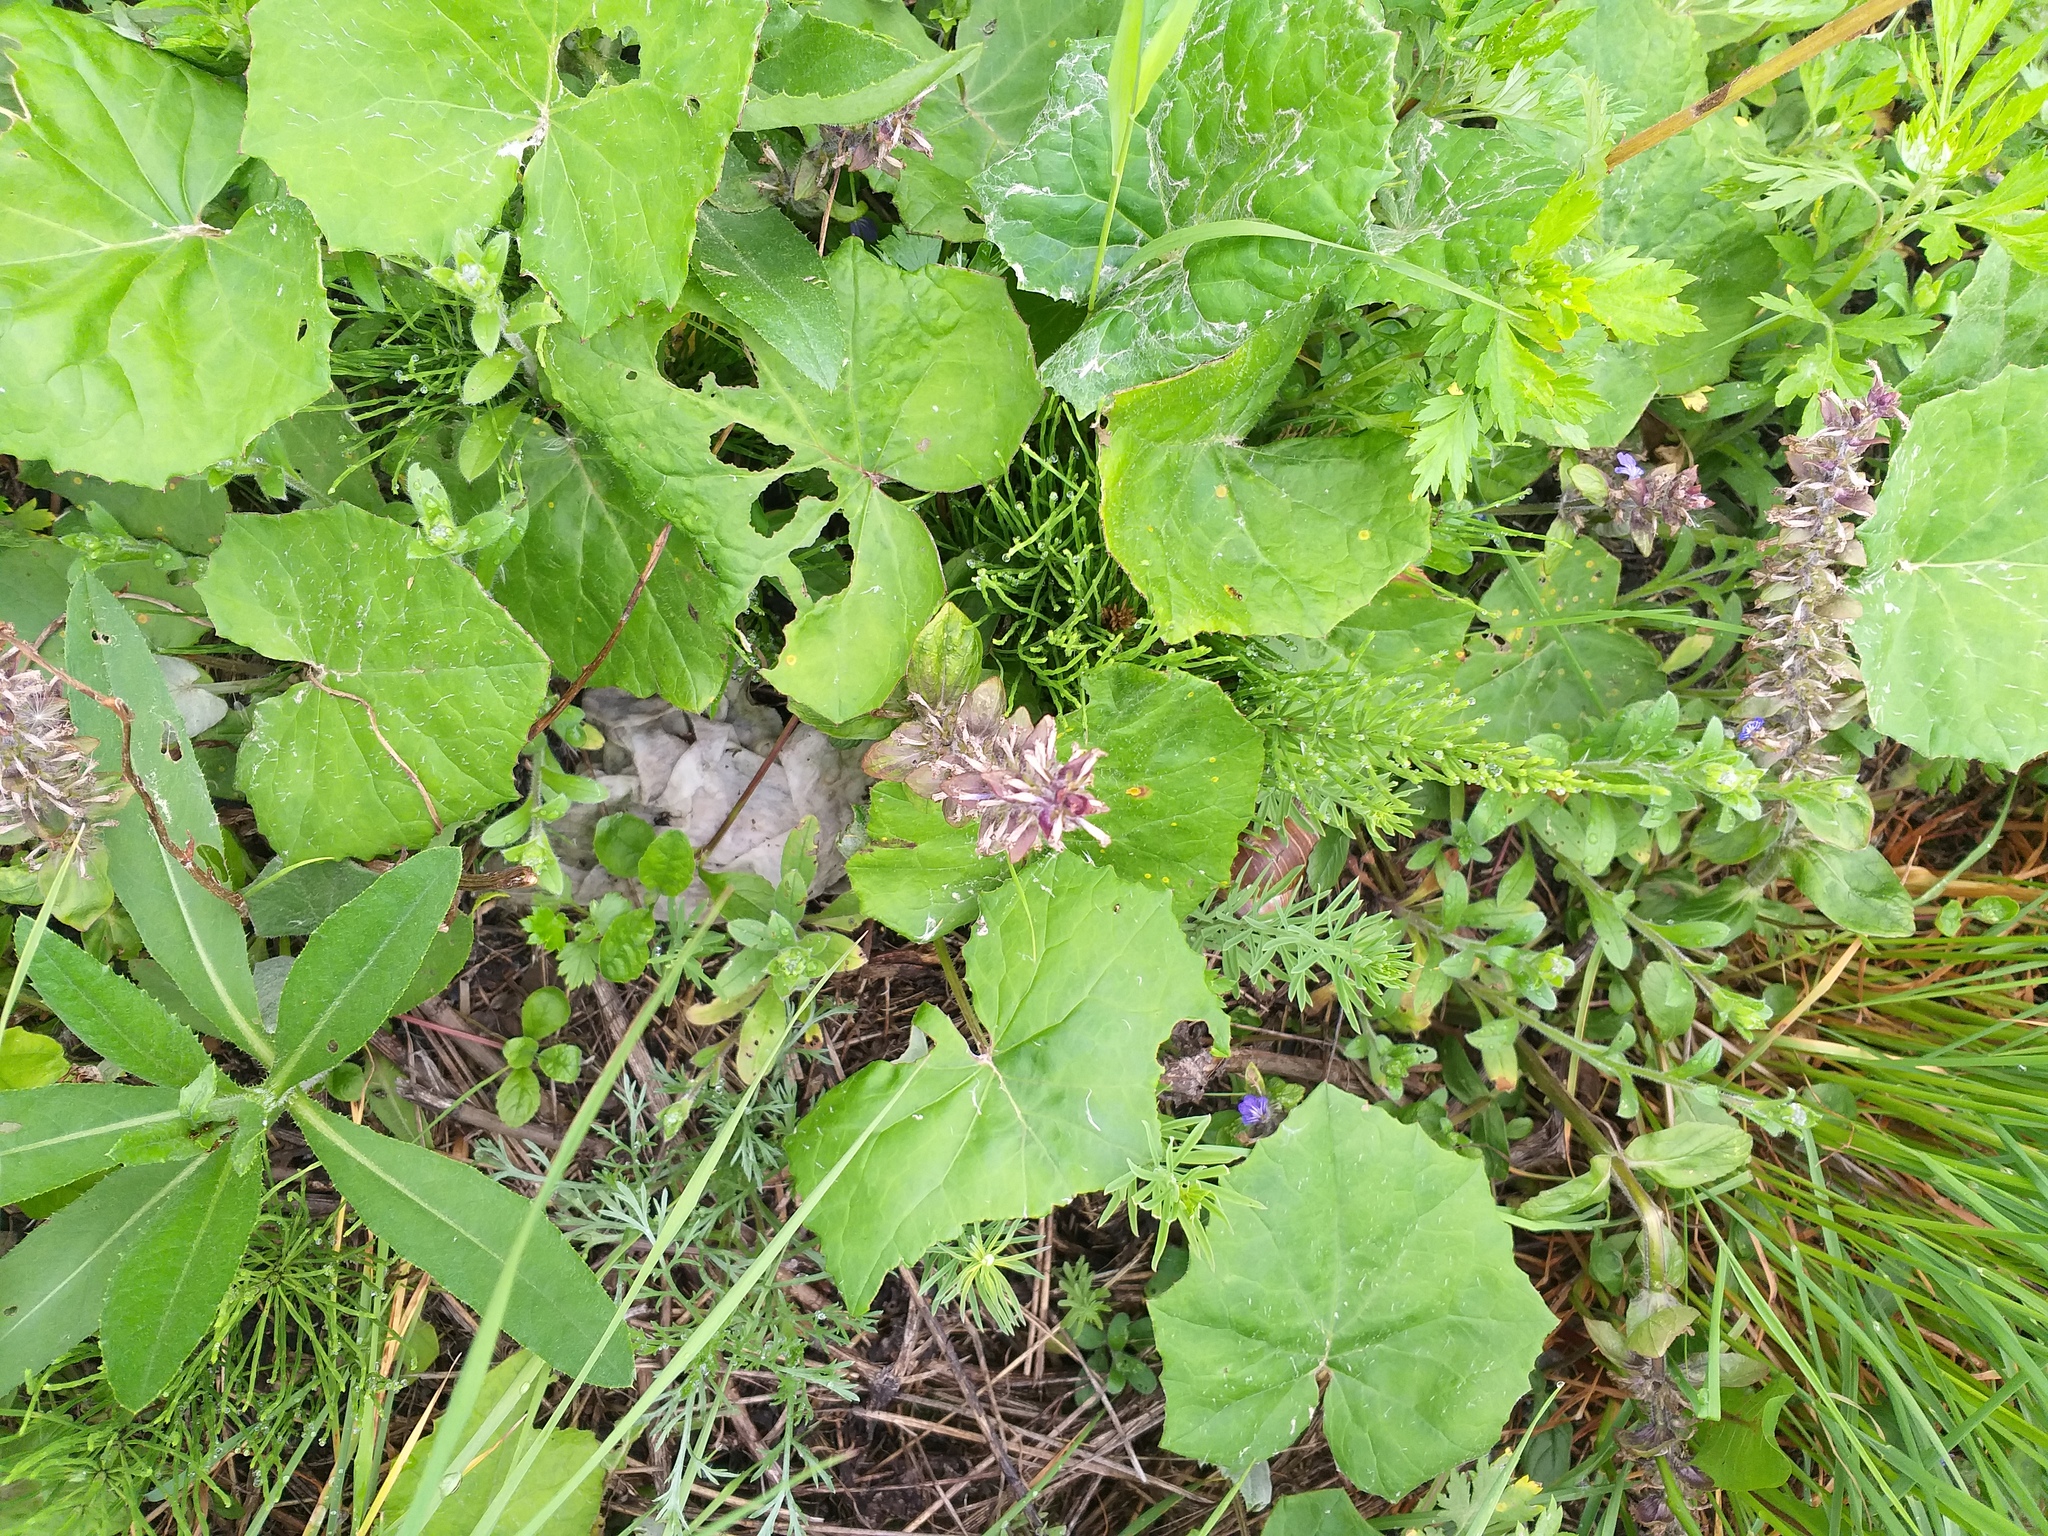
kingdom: Plantae
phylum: Tracheophyta
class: Magnoliopsida
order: Lamiales
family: Lamiaceae
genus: Ajuga
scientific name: Ajuga reptans
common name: Bugle
